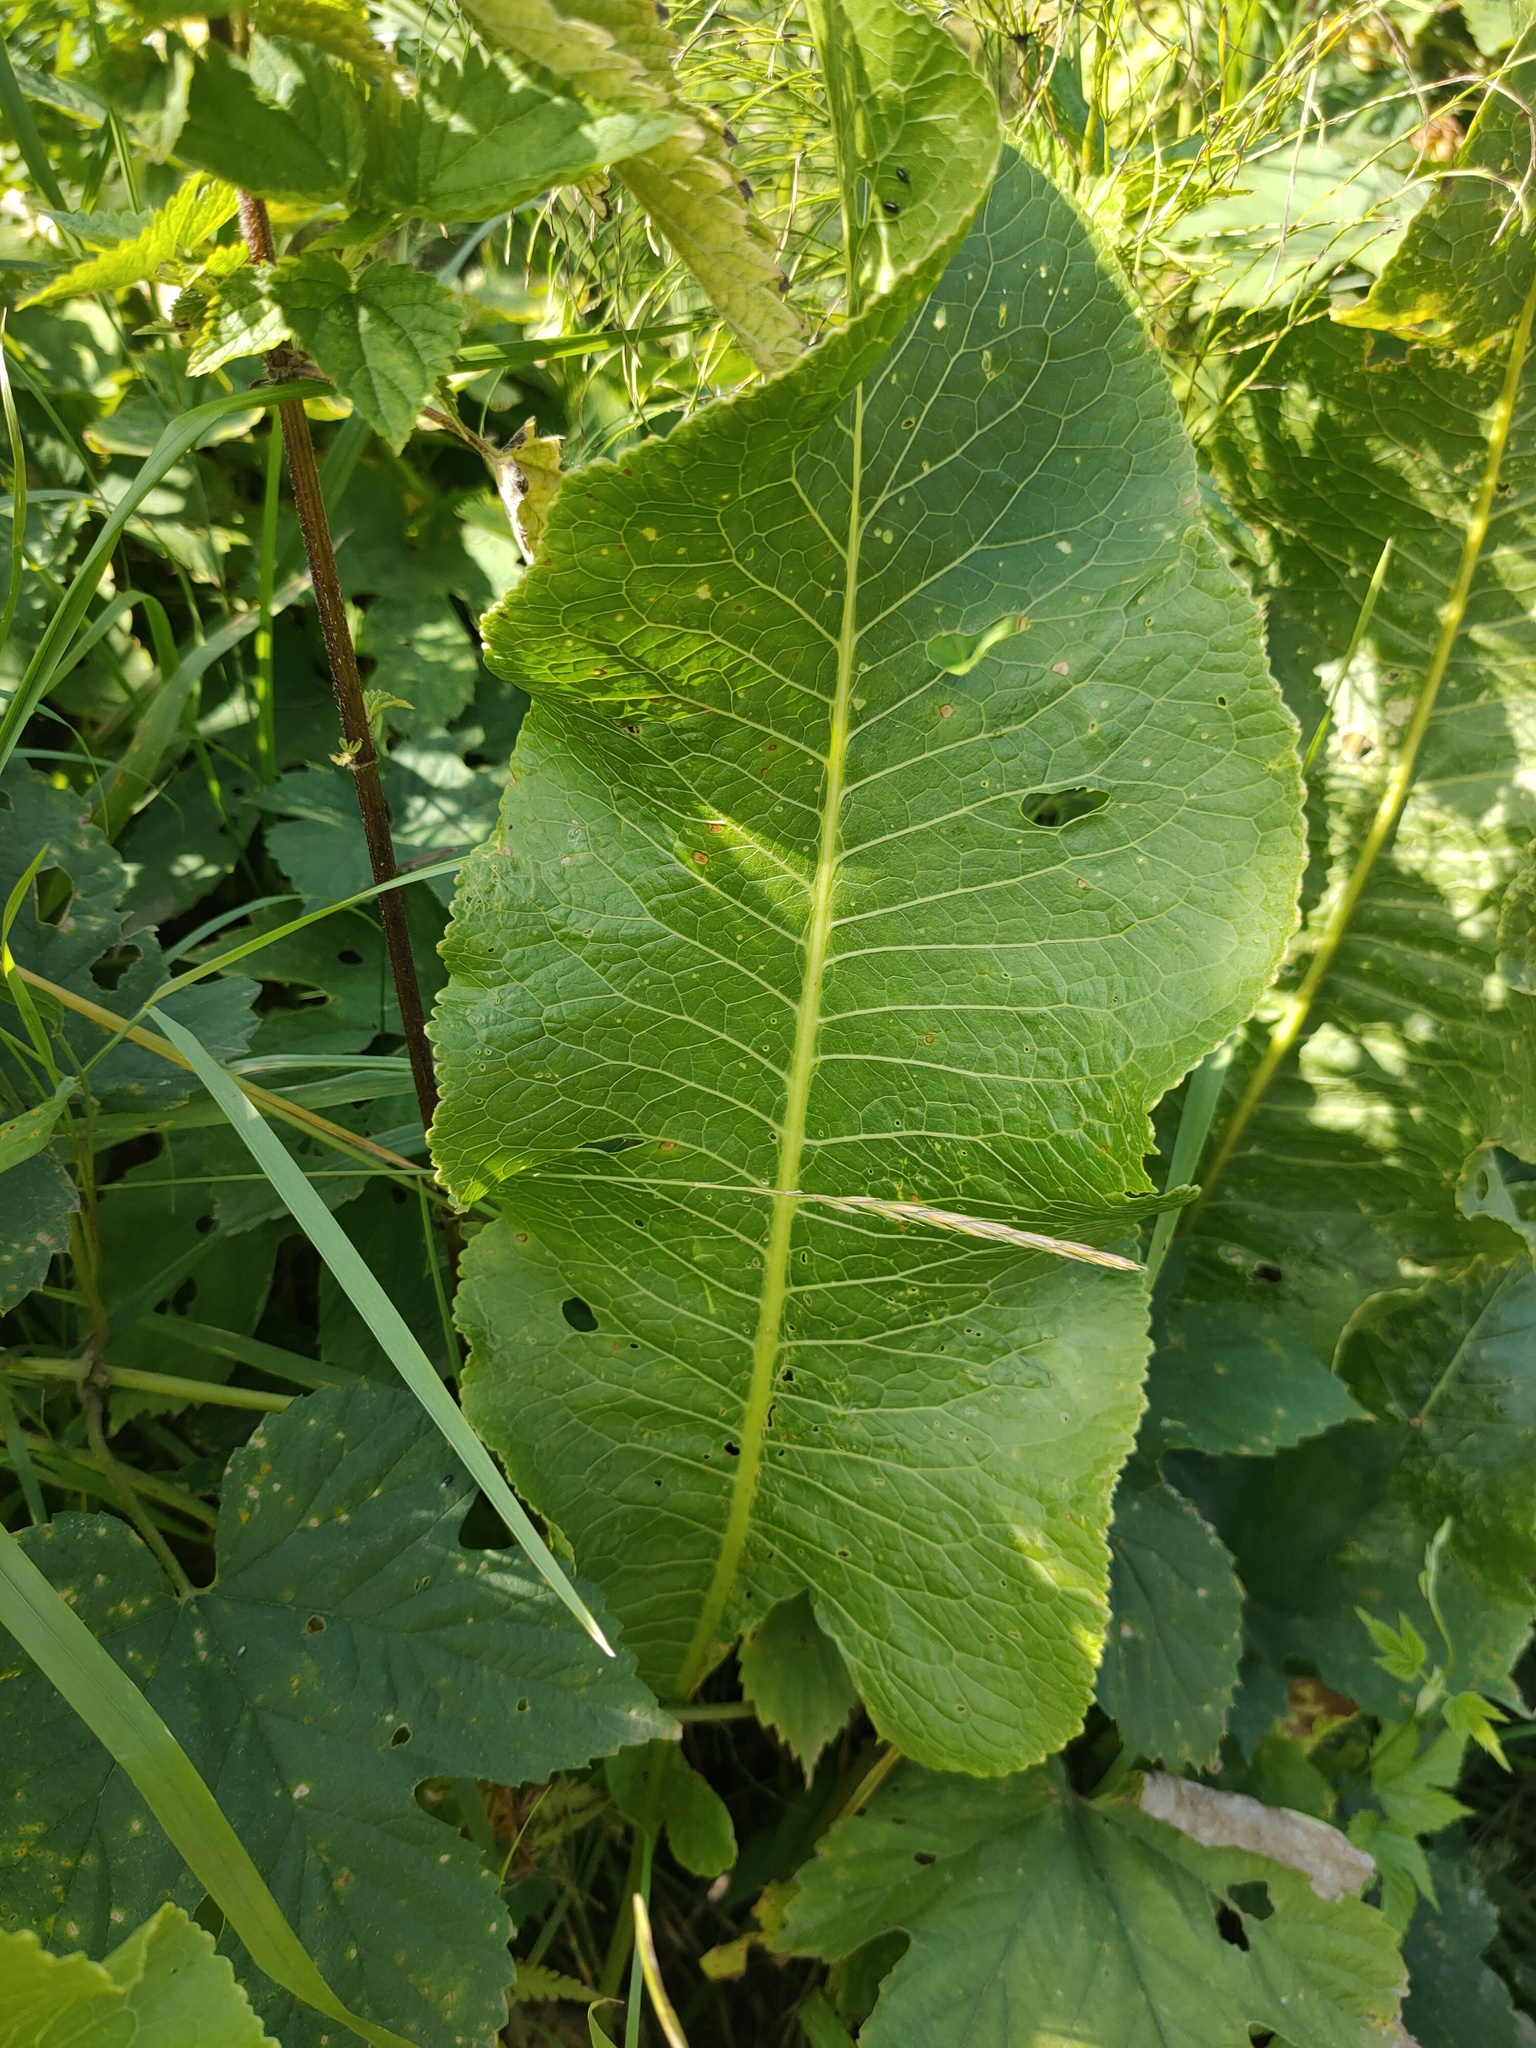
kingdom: Plantae
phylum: Tracheophyta
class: Magnoliopsida
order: Brassicales
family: Brassicaceae
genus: Armoracia
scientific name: Armoracia rusticana
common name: Horseradish
